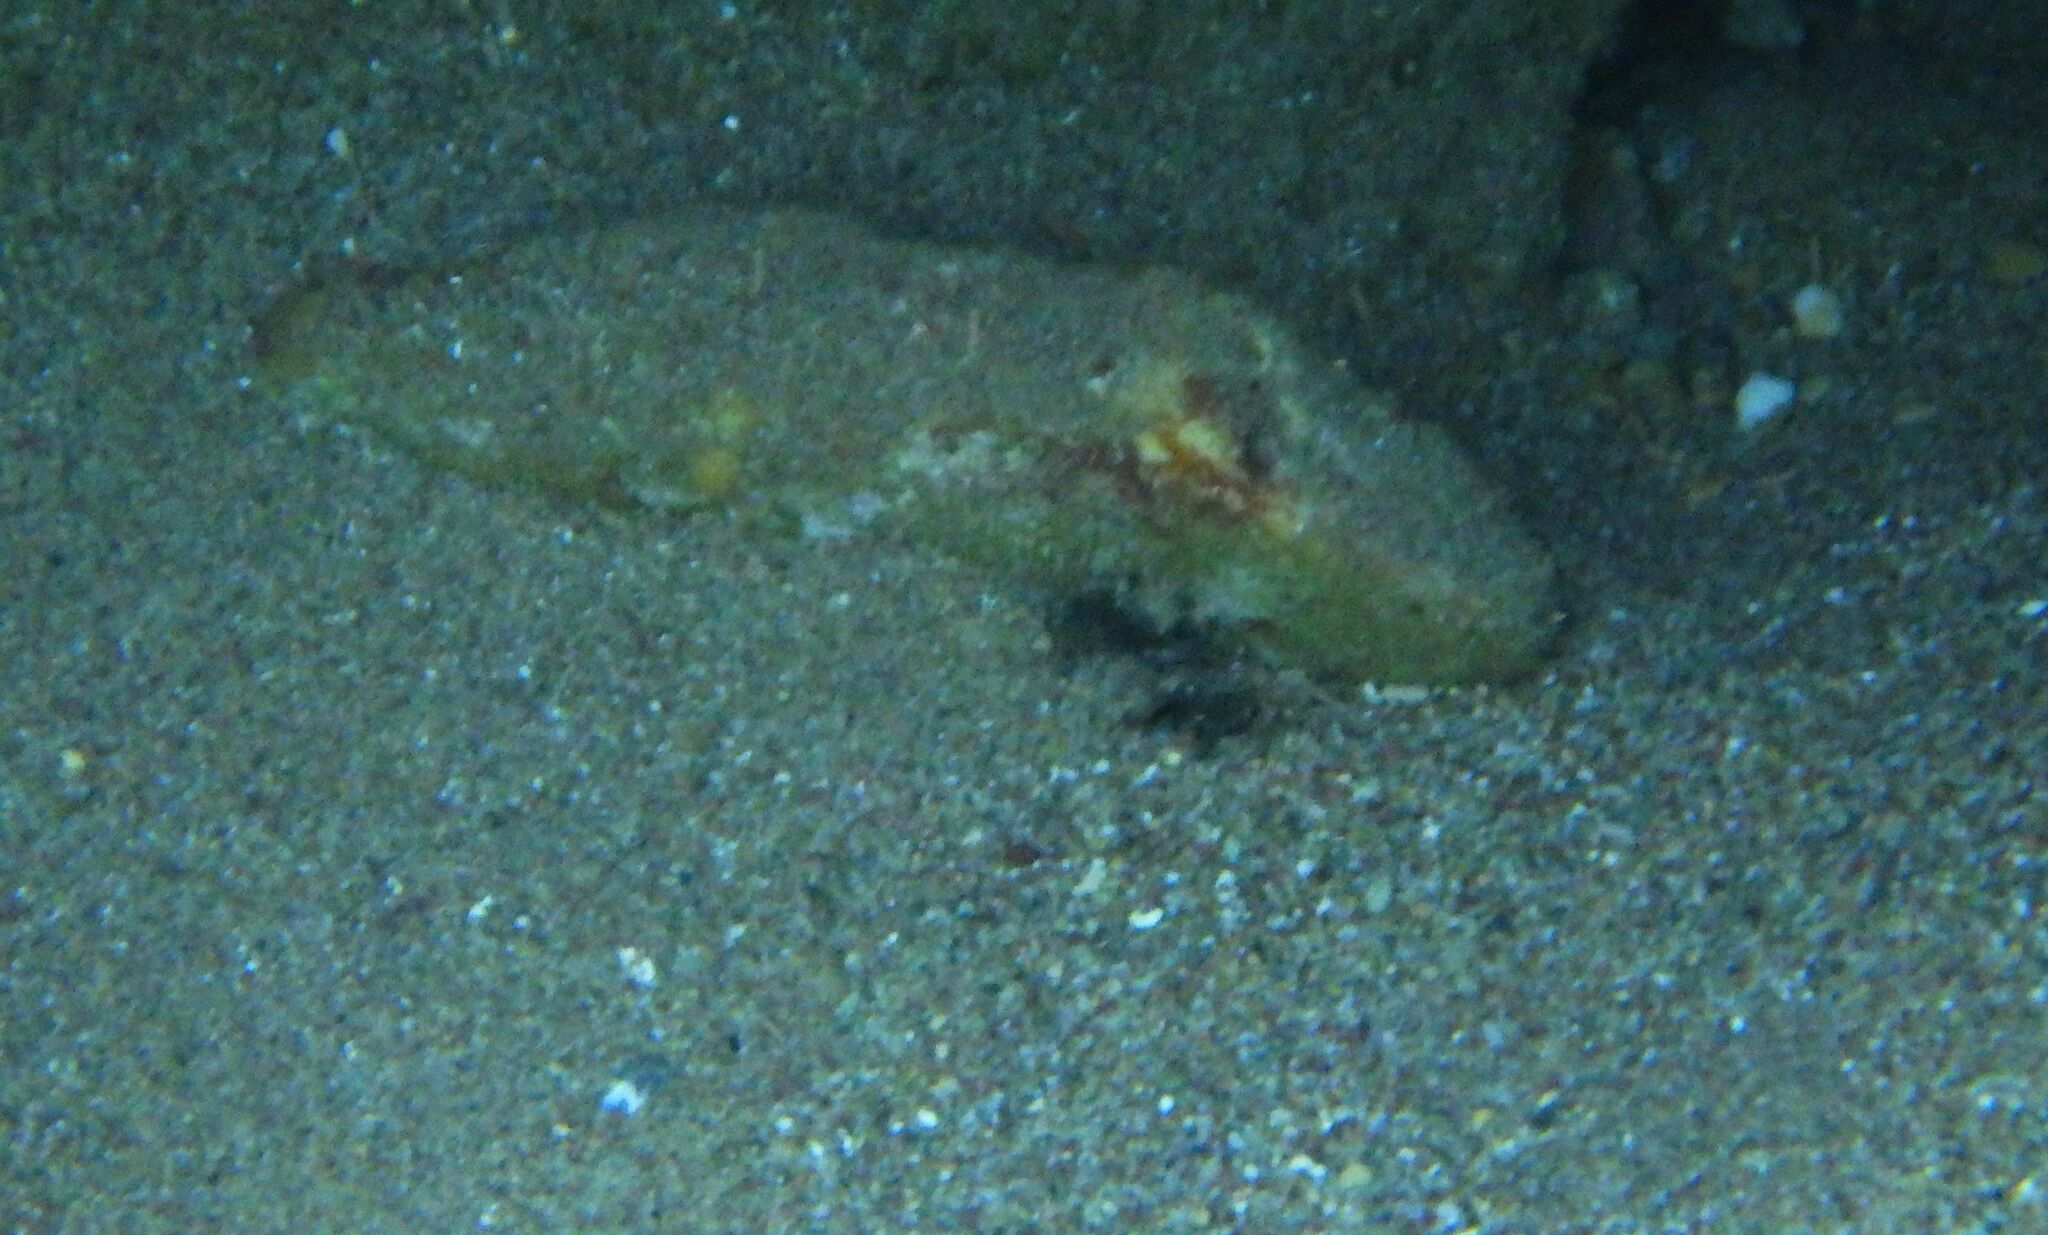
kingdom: Animalia
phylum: Mollusca
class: Cephalopoda
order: Sepiida
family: Sepiidae
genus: Sepia
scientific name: Sepia officinalis
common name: Common cuttlefish
